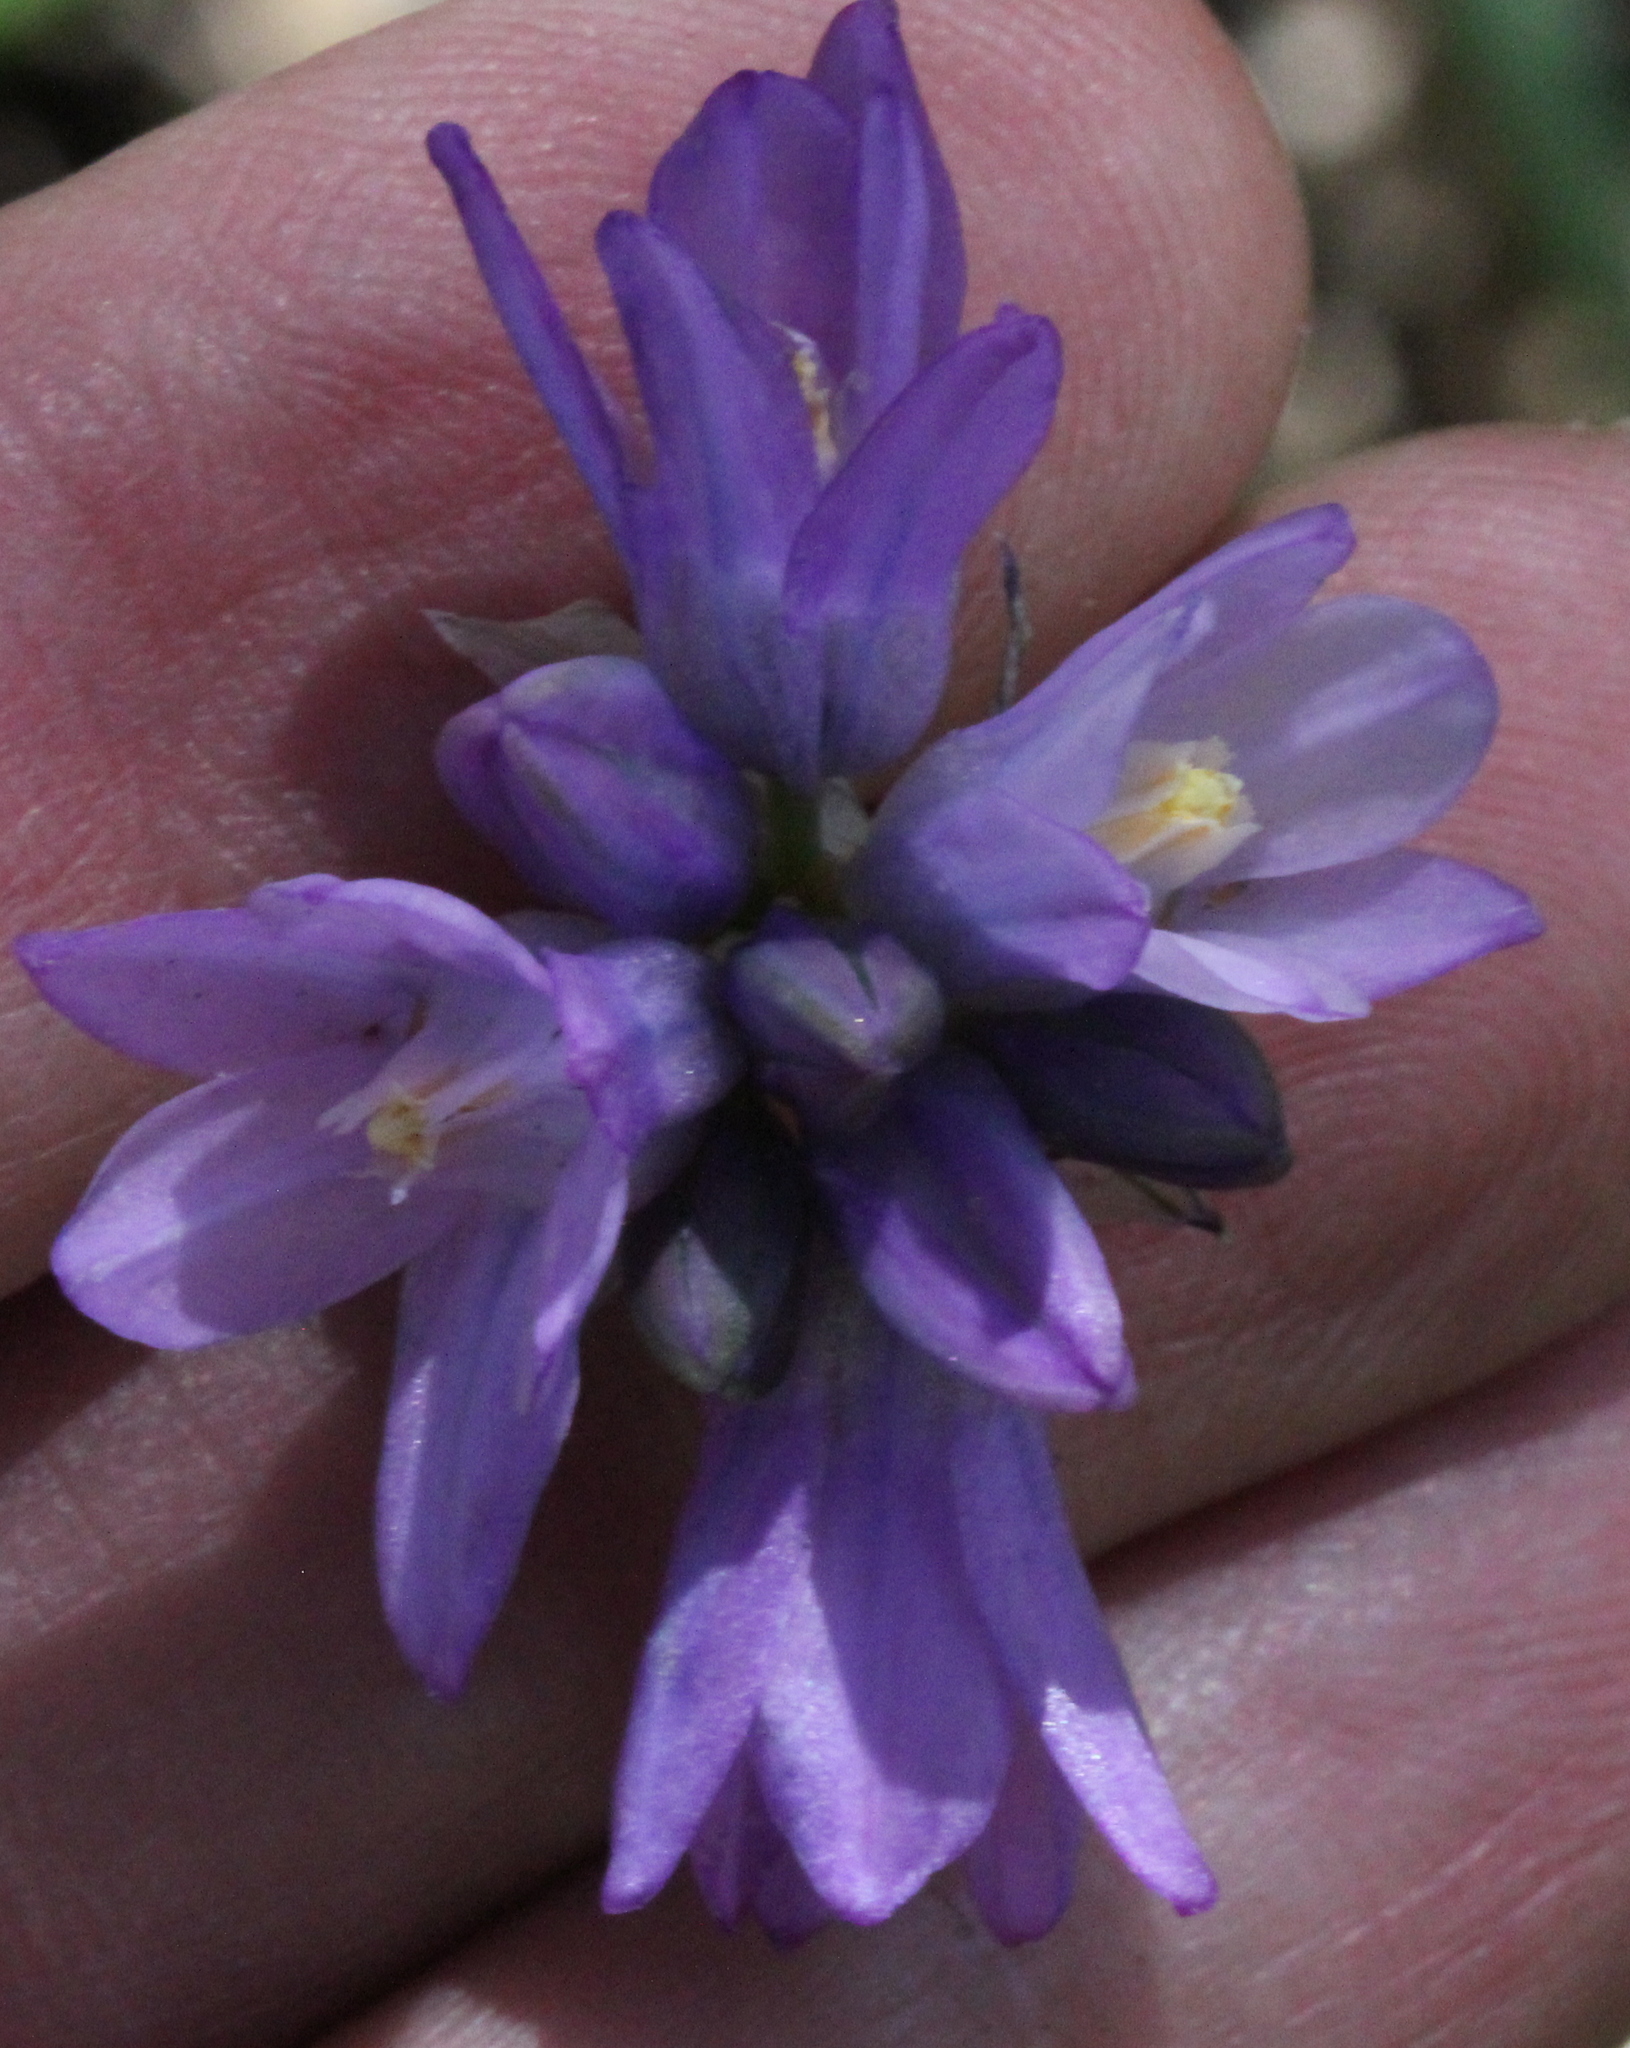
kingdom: Plantae
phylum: Tracheophyta
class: Liliopsida
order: Asparagales
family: Asparagaceae
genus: Dipterostemon
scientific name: Dipterostemon capitatus
